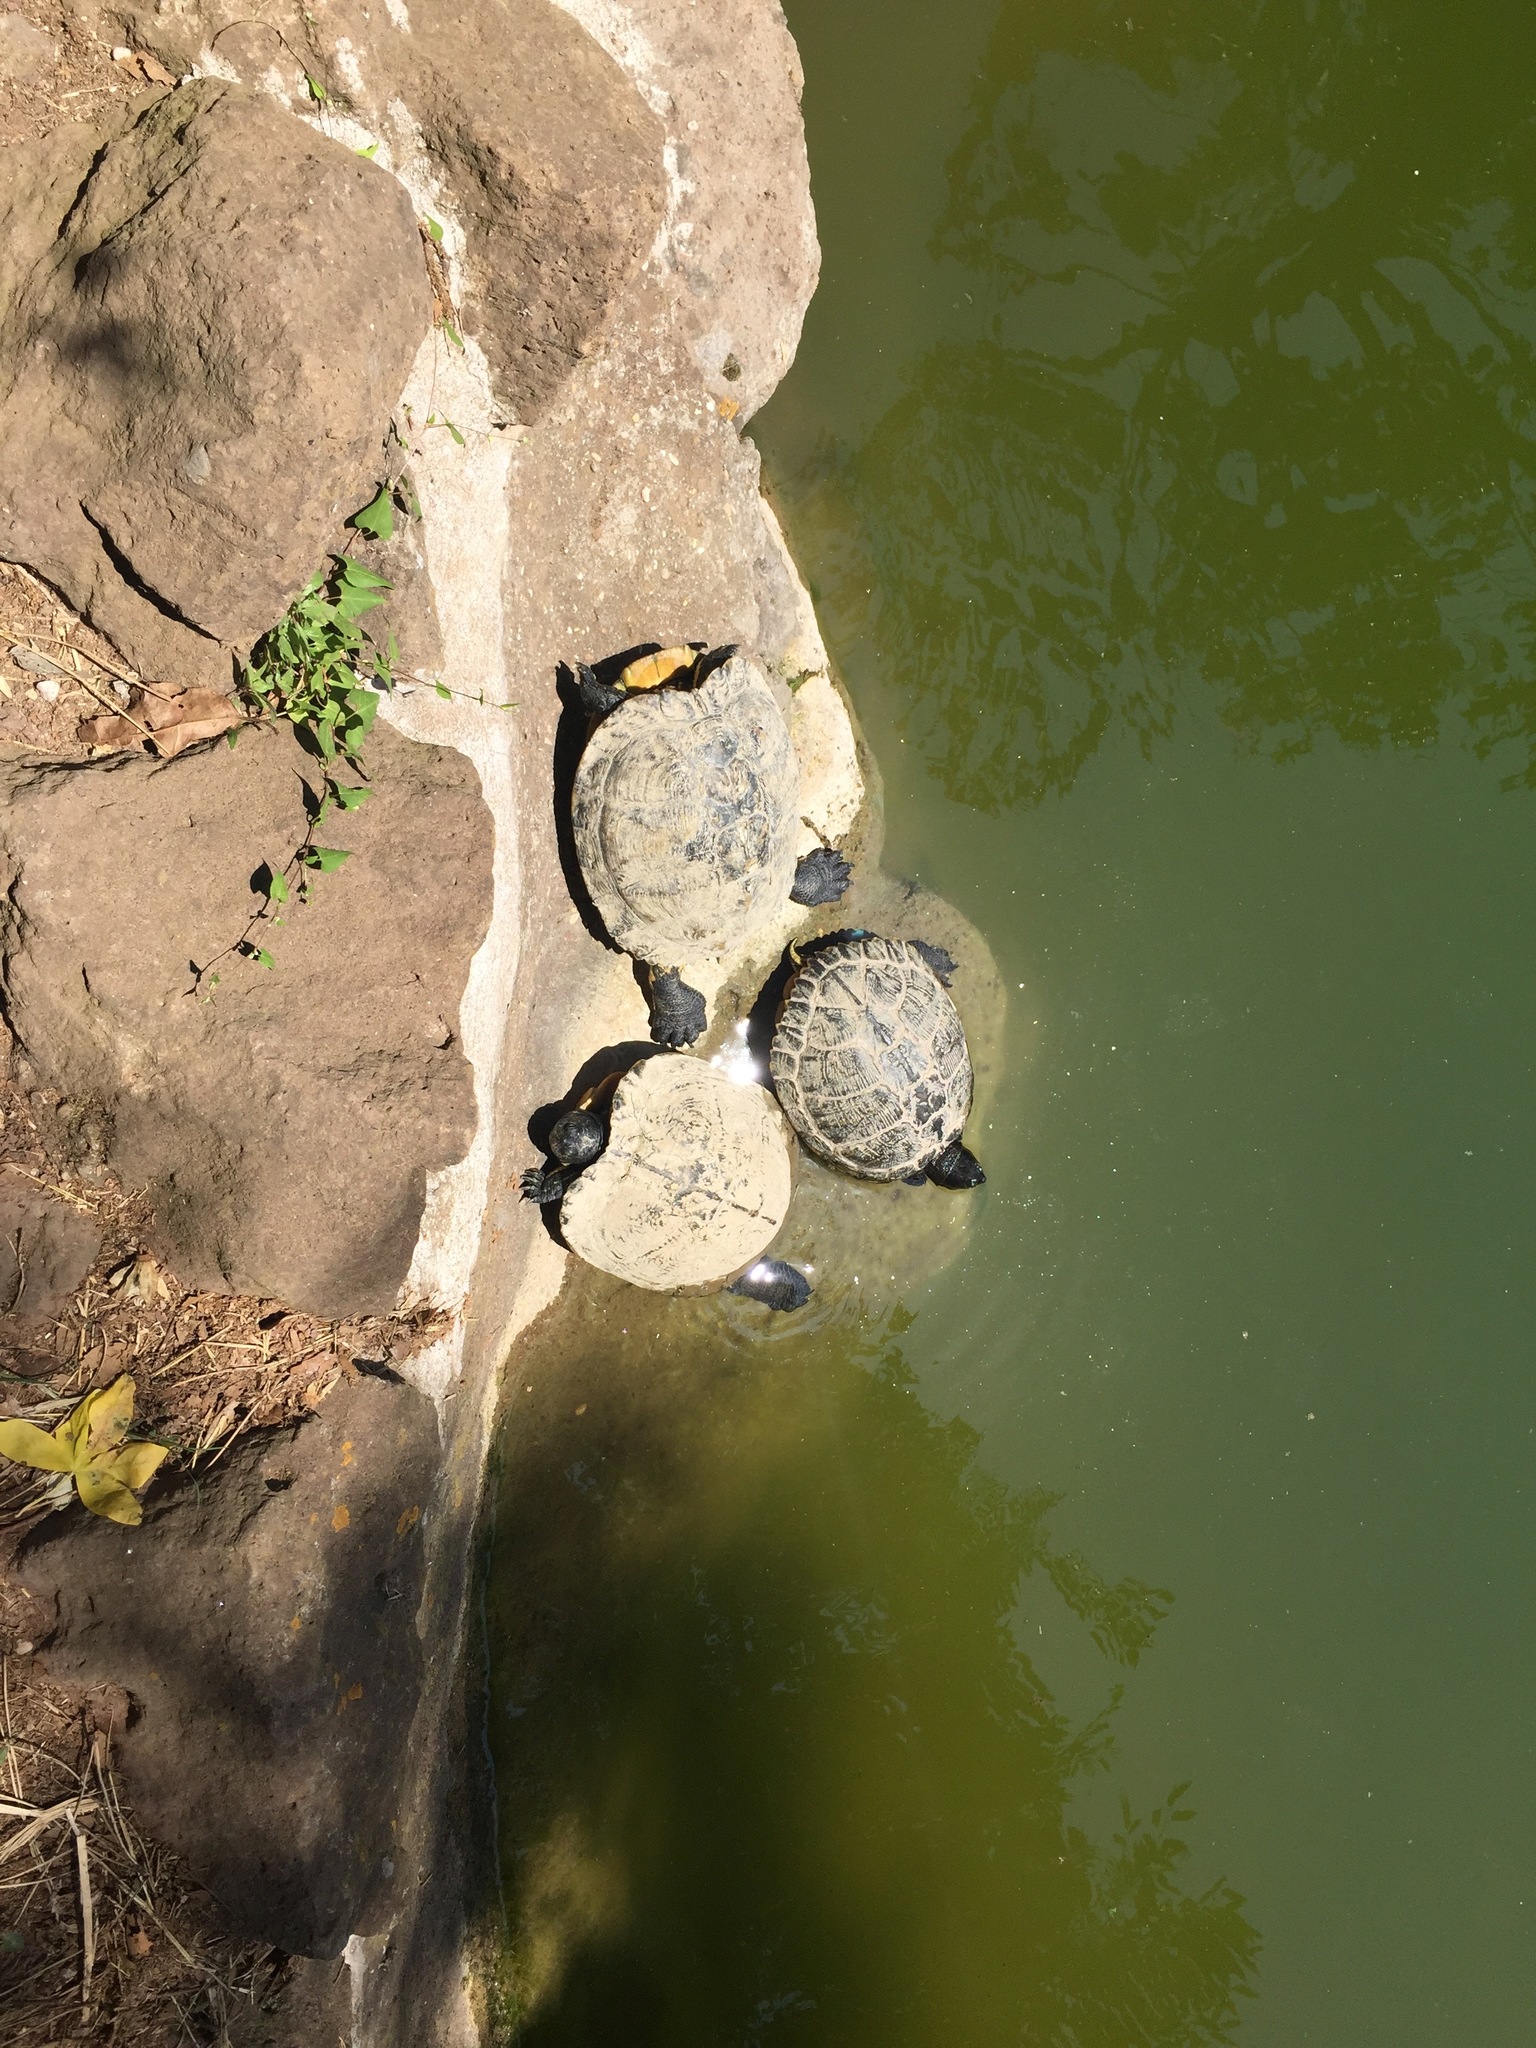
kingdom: Animalia
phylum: Chordata
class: Testudines
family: Emydidae
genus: Trachemys
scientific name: Trachemys scripta
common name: Slider
